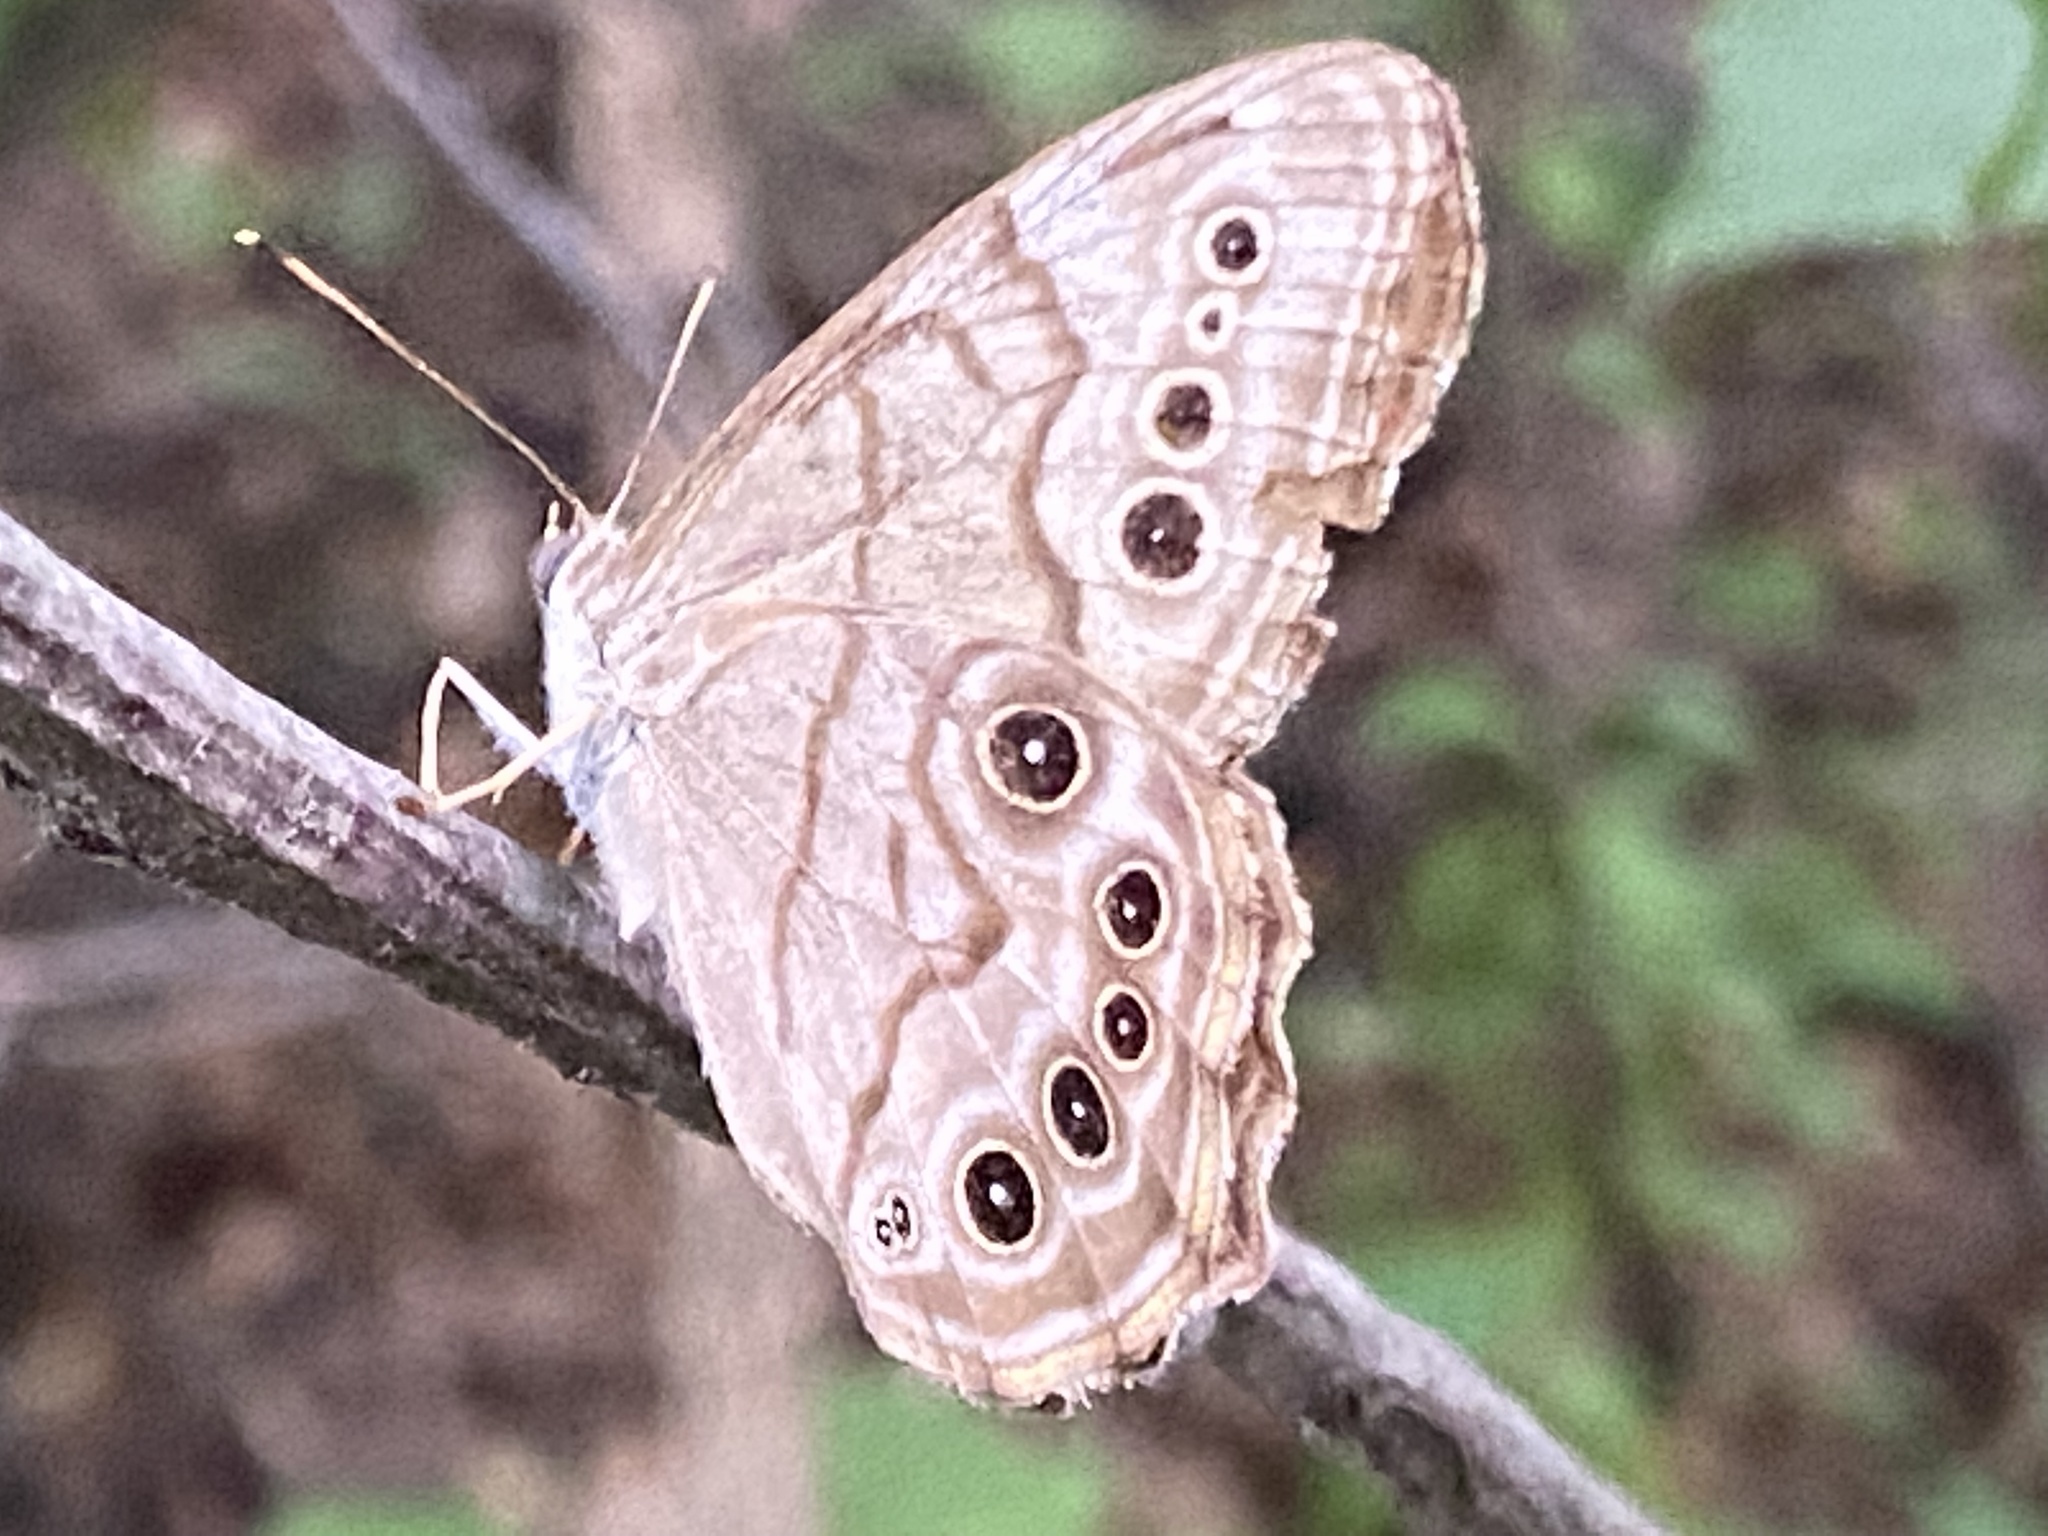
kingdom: Animalia
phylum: Arthropoda
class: Insecta
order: Lepidoptera
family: Nymphalidae
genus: Lethe
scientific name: Lethe anthedon
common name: Northern pearly-eye
